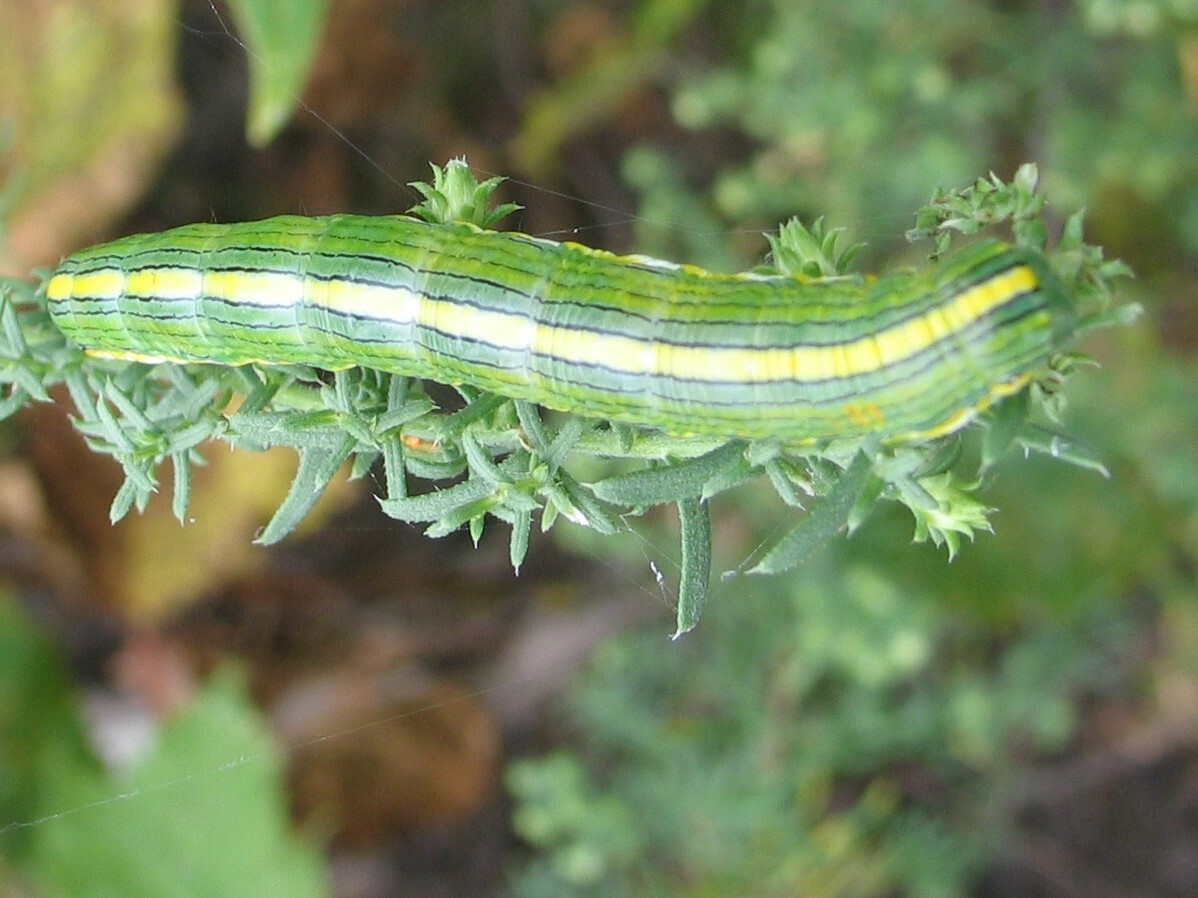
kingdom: Animalia
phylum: Arthropoda
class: Insecta
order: Lepidoptera
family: Noctuidae
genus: Cucullia
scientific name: Cucullia asteroides
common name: Asteroid moth
